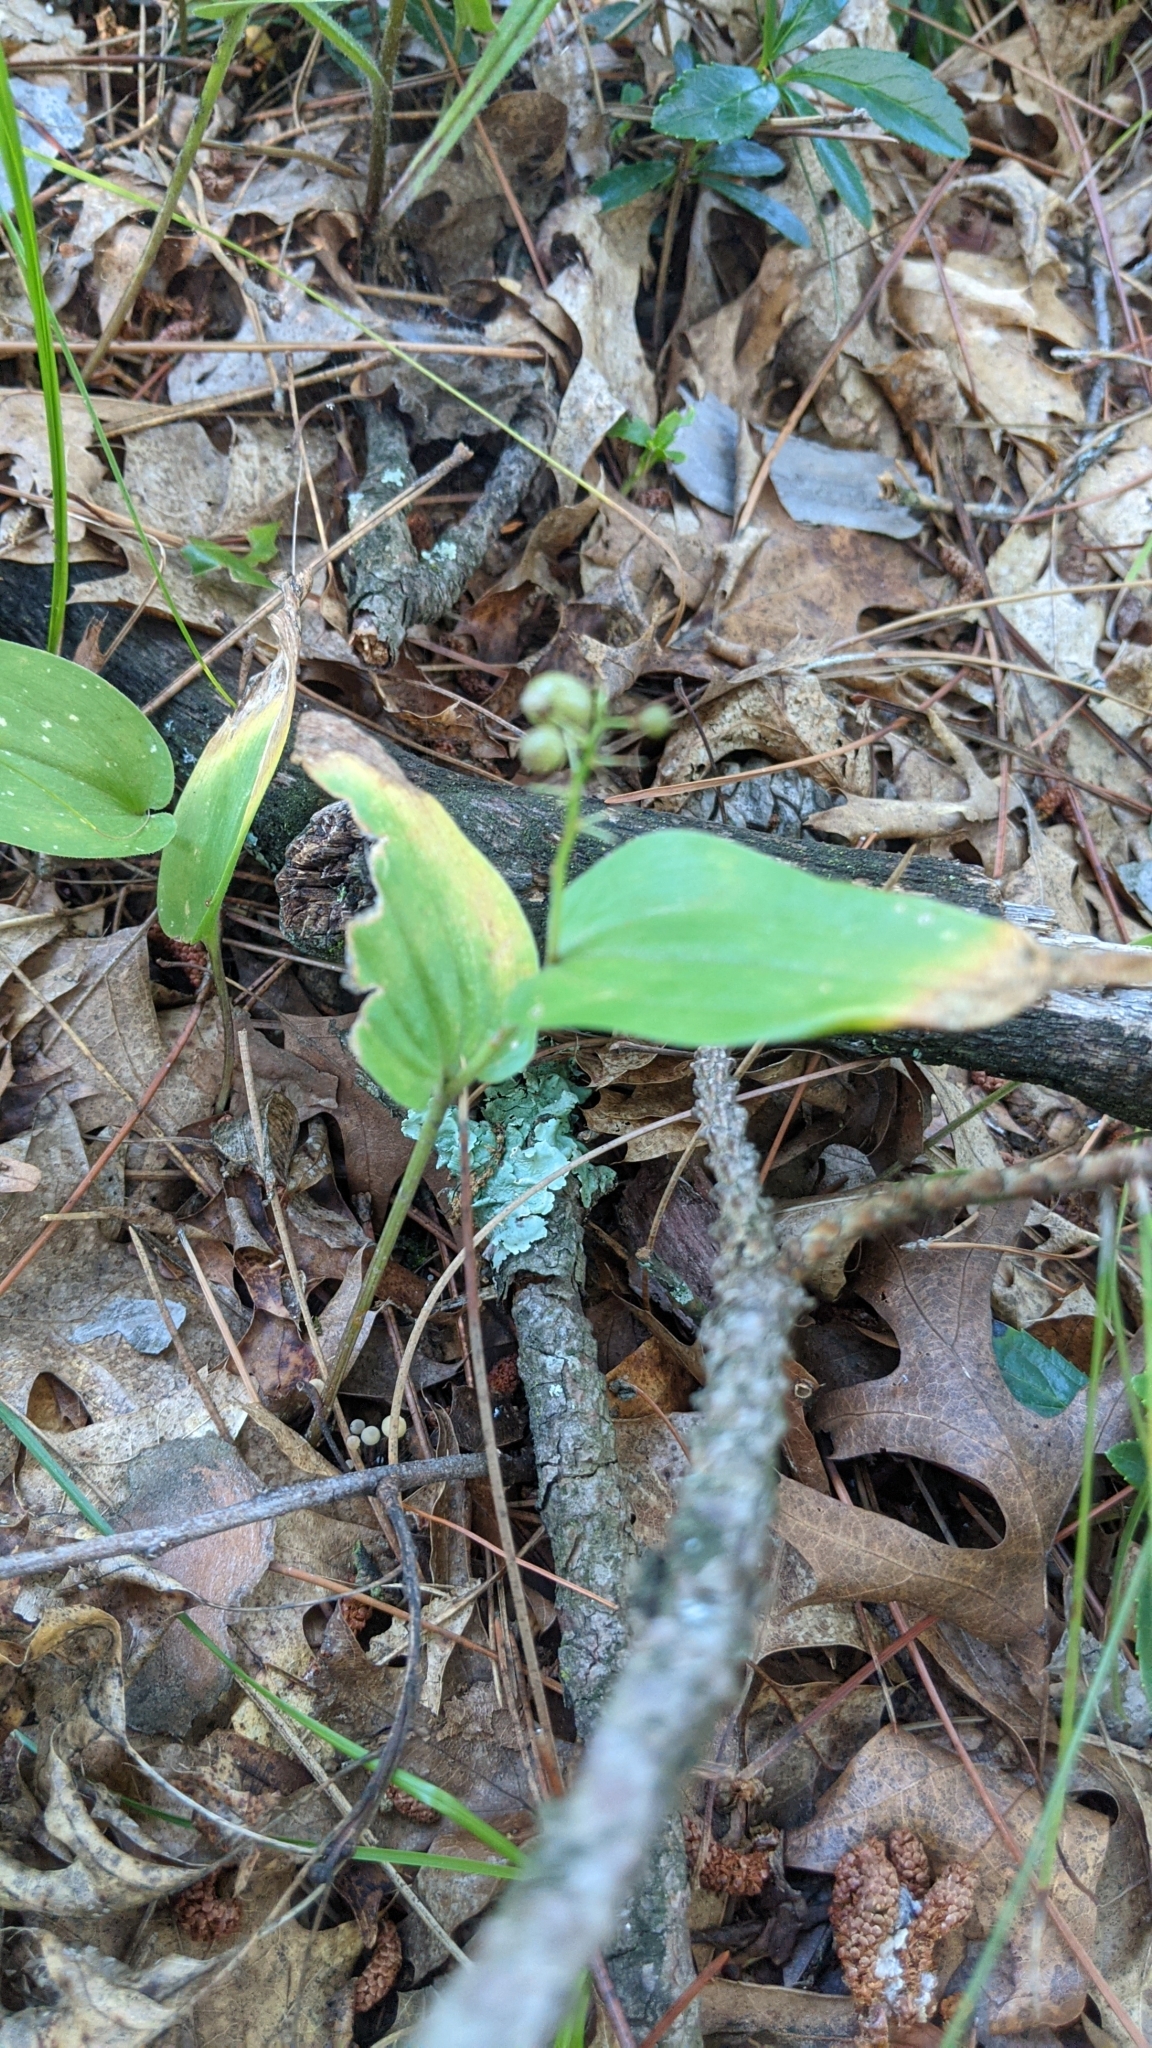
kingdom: Plantae
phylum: Tracheophyta
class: Liliopsida
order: Asparagales
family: Asparagaceae
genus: Maianthemum
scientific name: Maianthemum canadense
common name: False lily-of-the-valley
